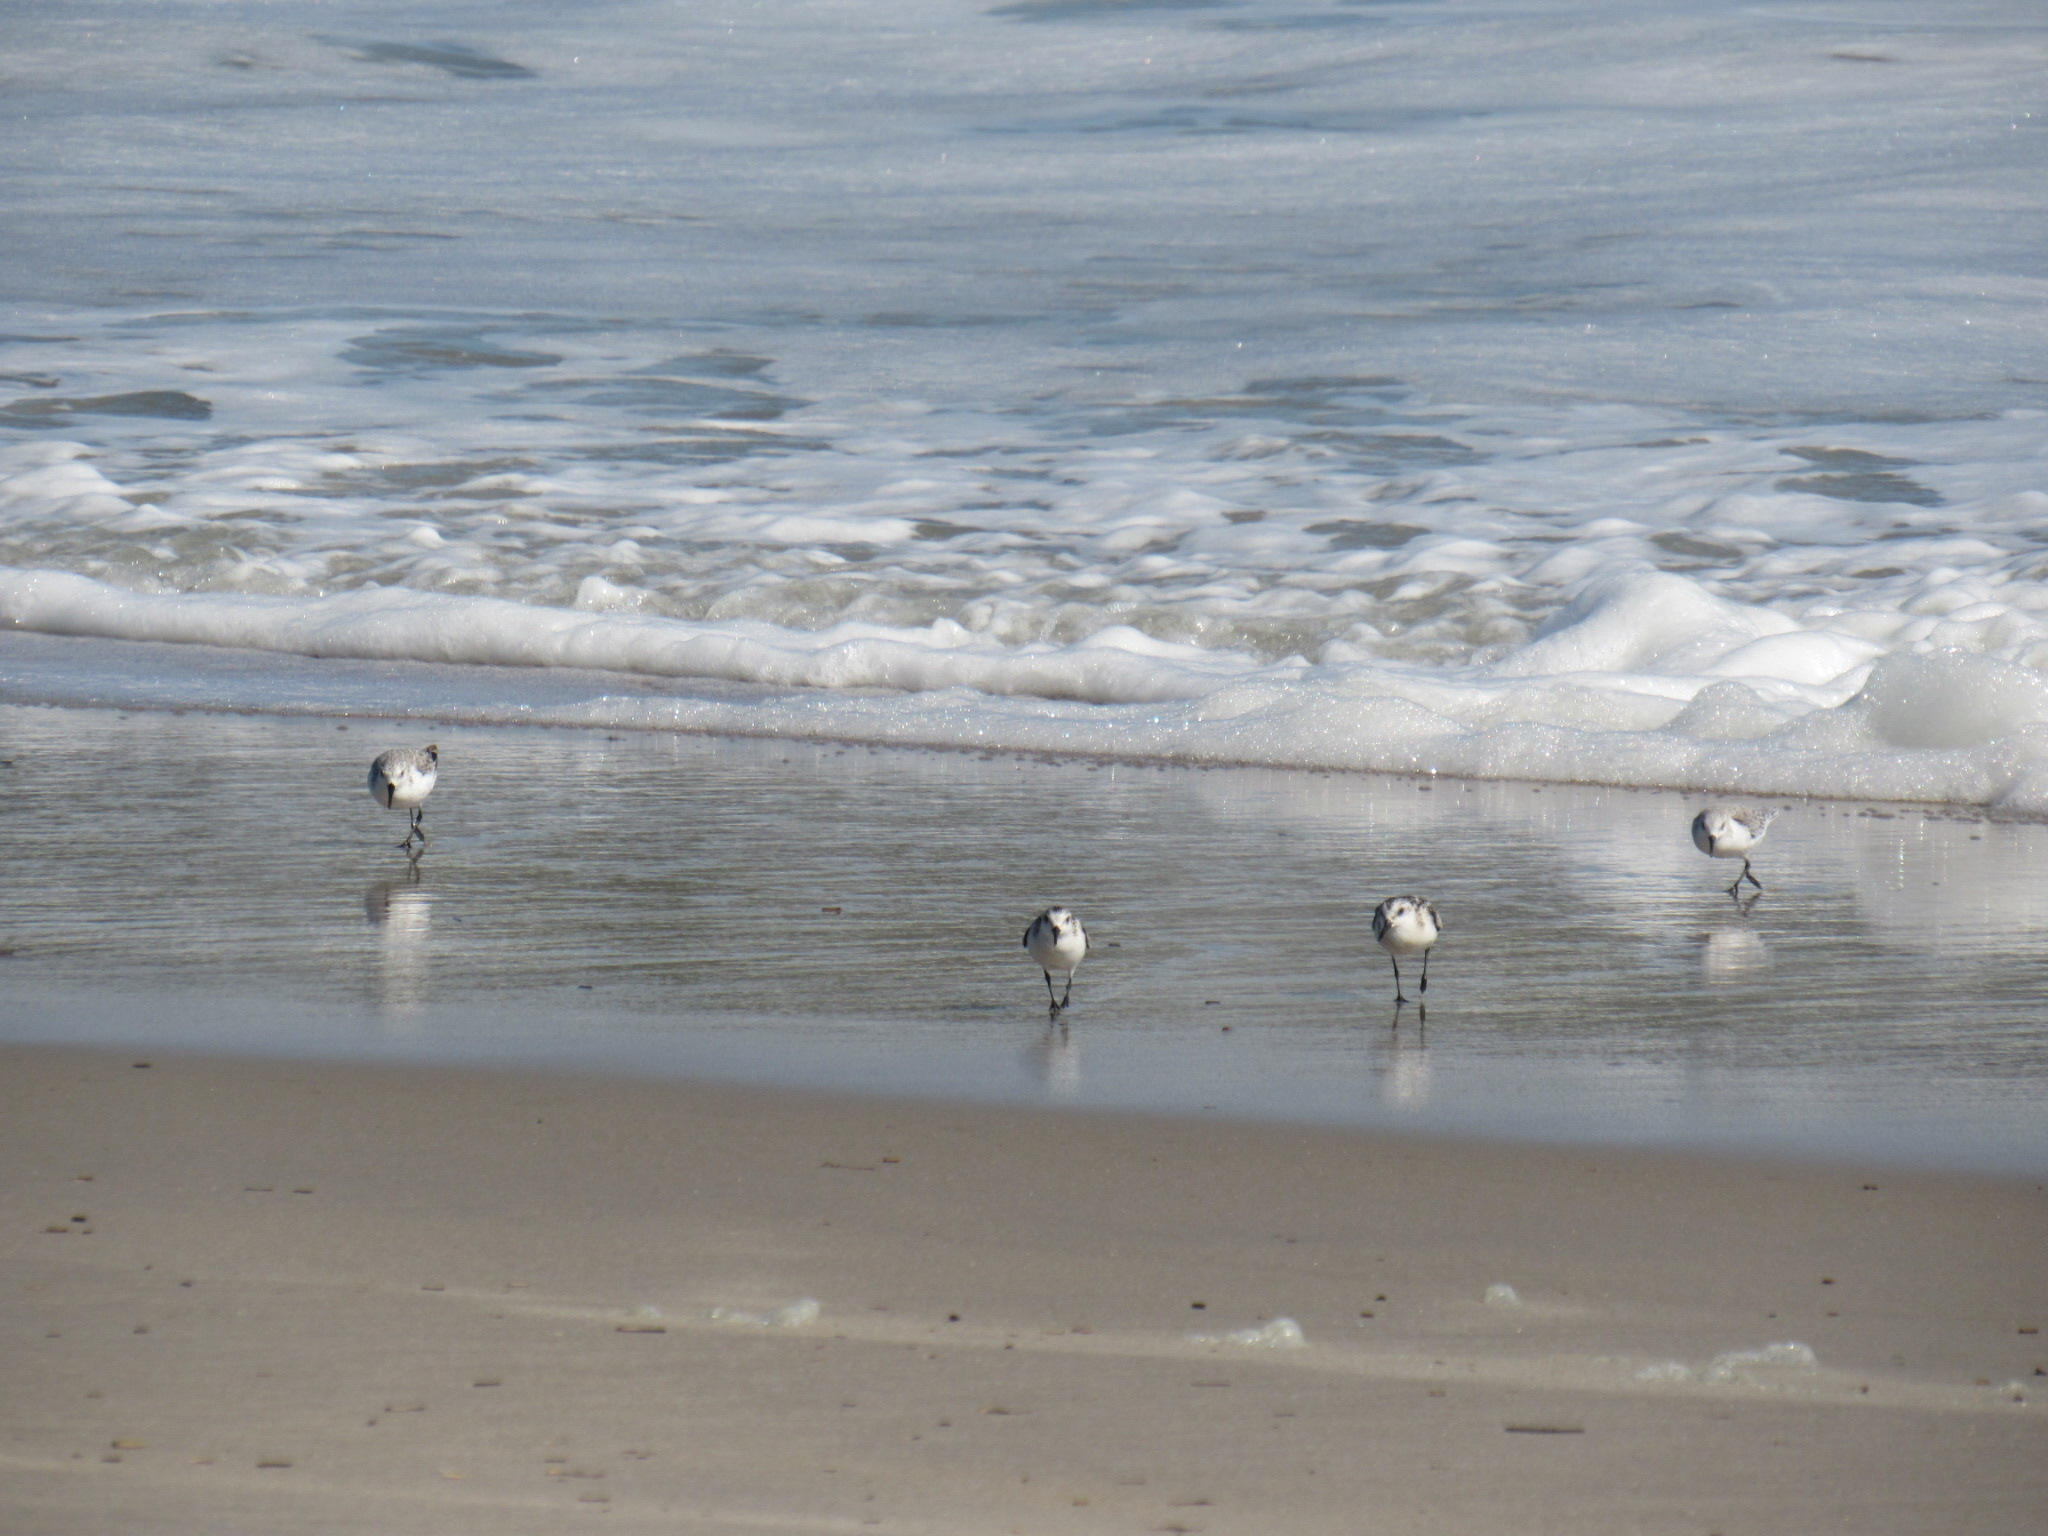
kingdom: Animalia
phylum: Chordata
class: Aves
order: Charadriiformes
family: Scolopacidae
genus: Calidris
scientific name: Calidris alba
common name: Sanderling
